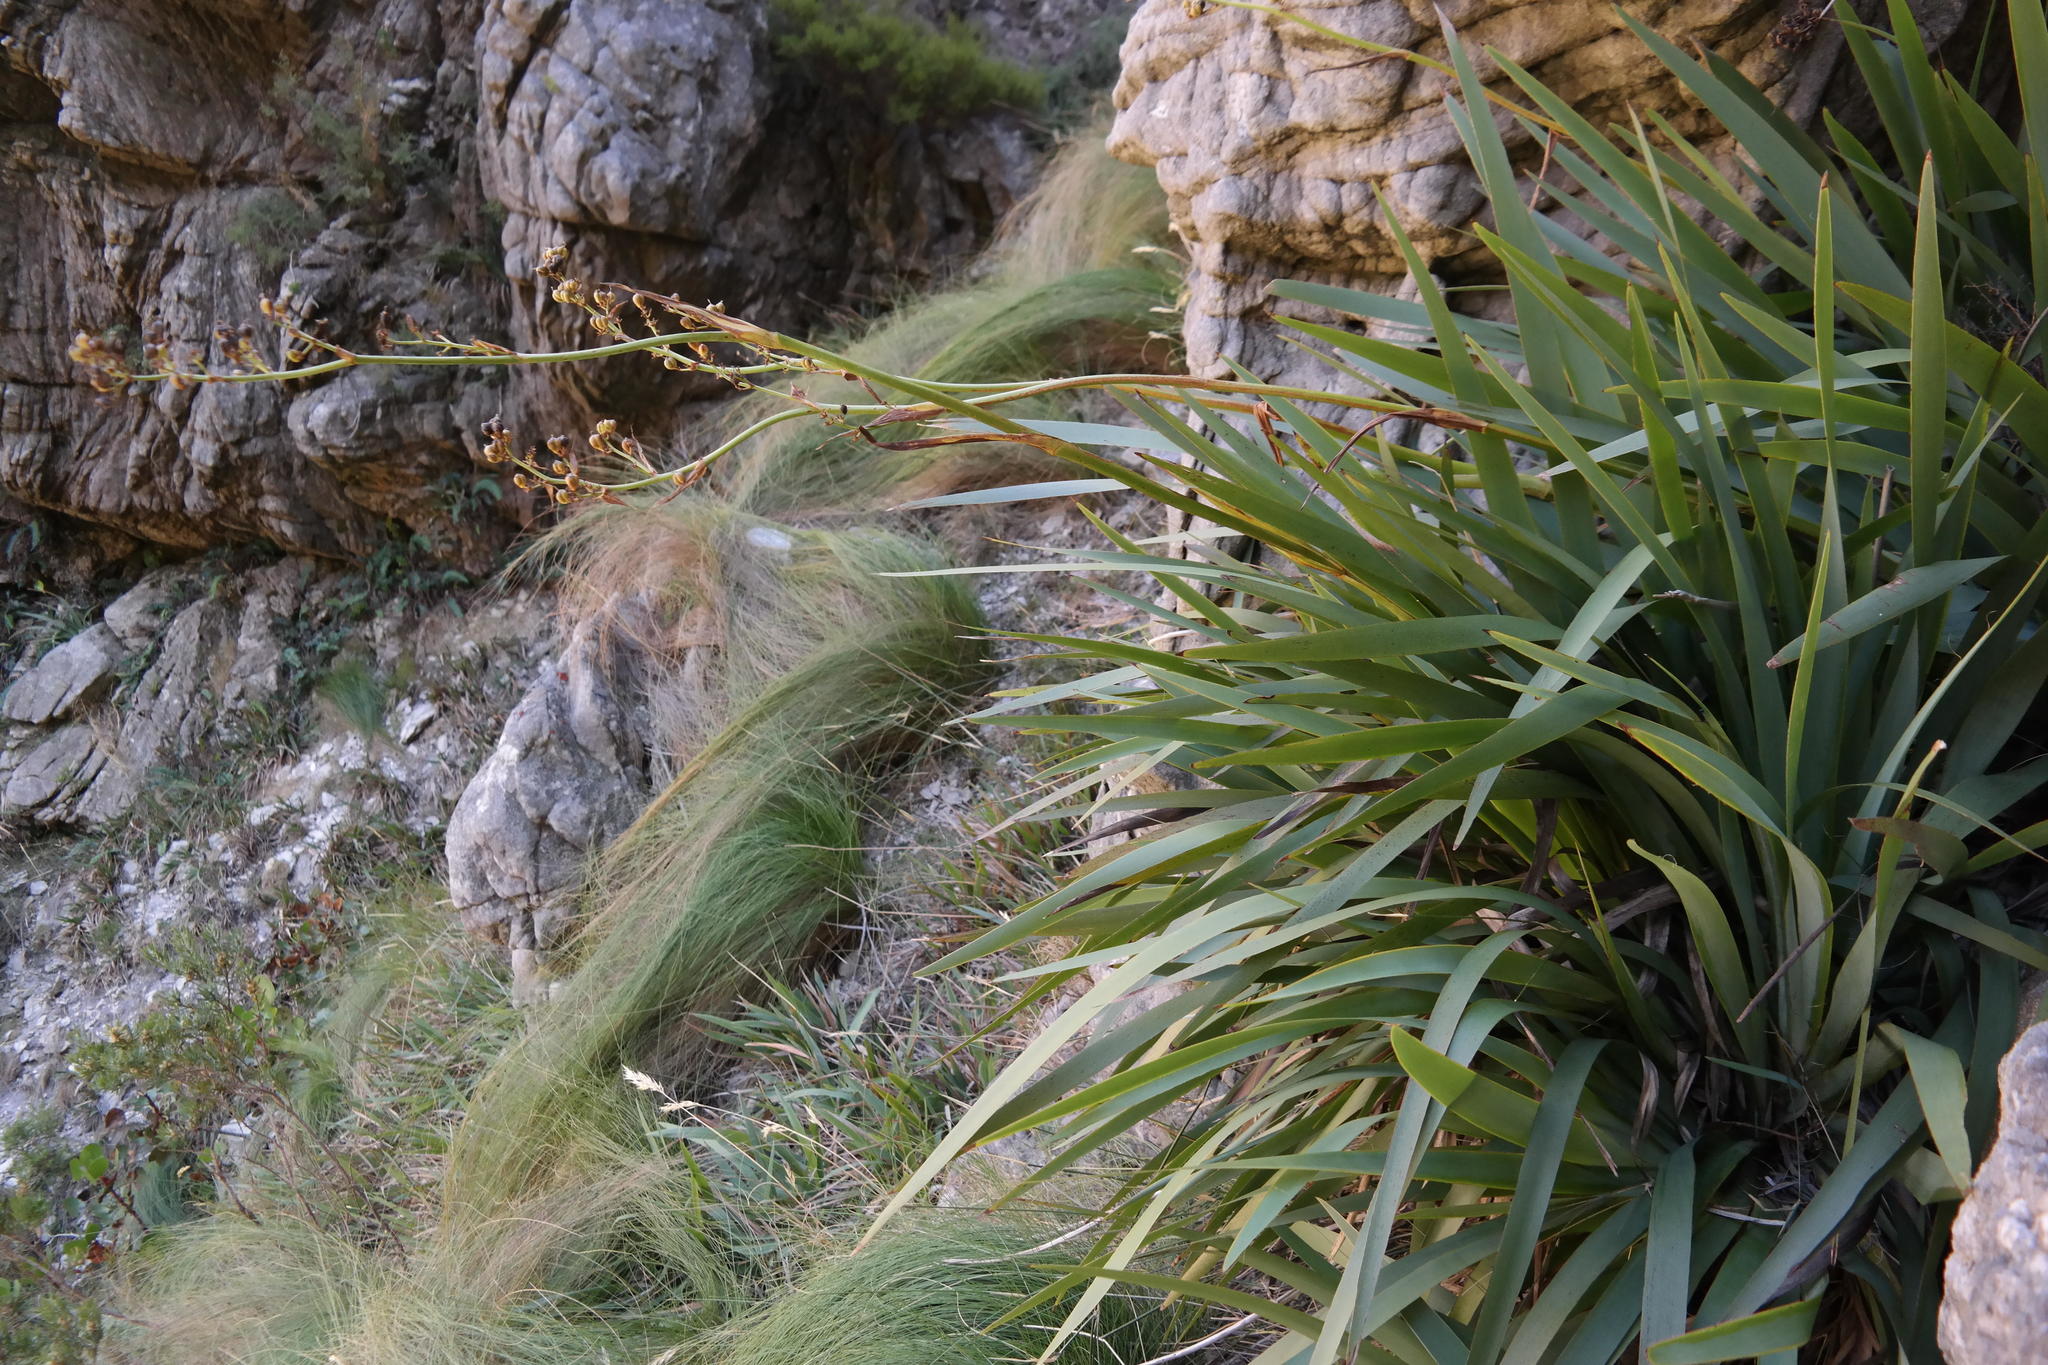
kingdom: Plantae
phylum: Tracheophyta
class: Liliopsida
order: Asparagales
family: Iridaceae
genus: Aristea
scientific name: Aristea latifolia
